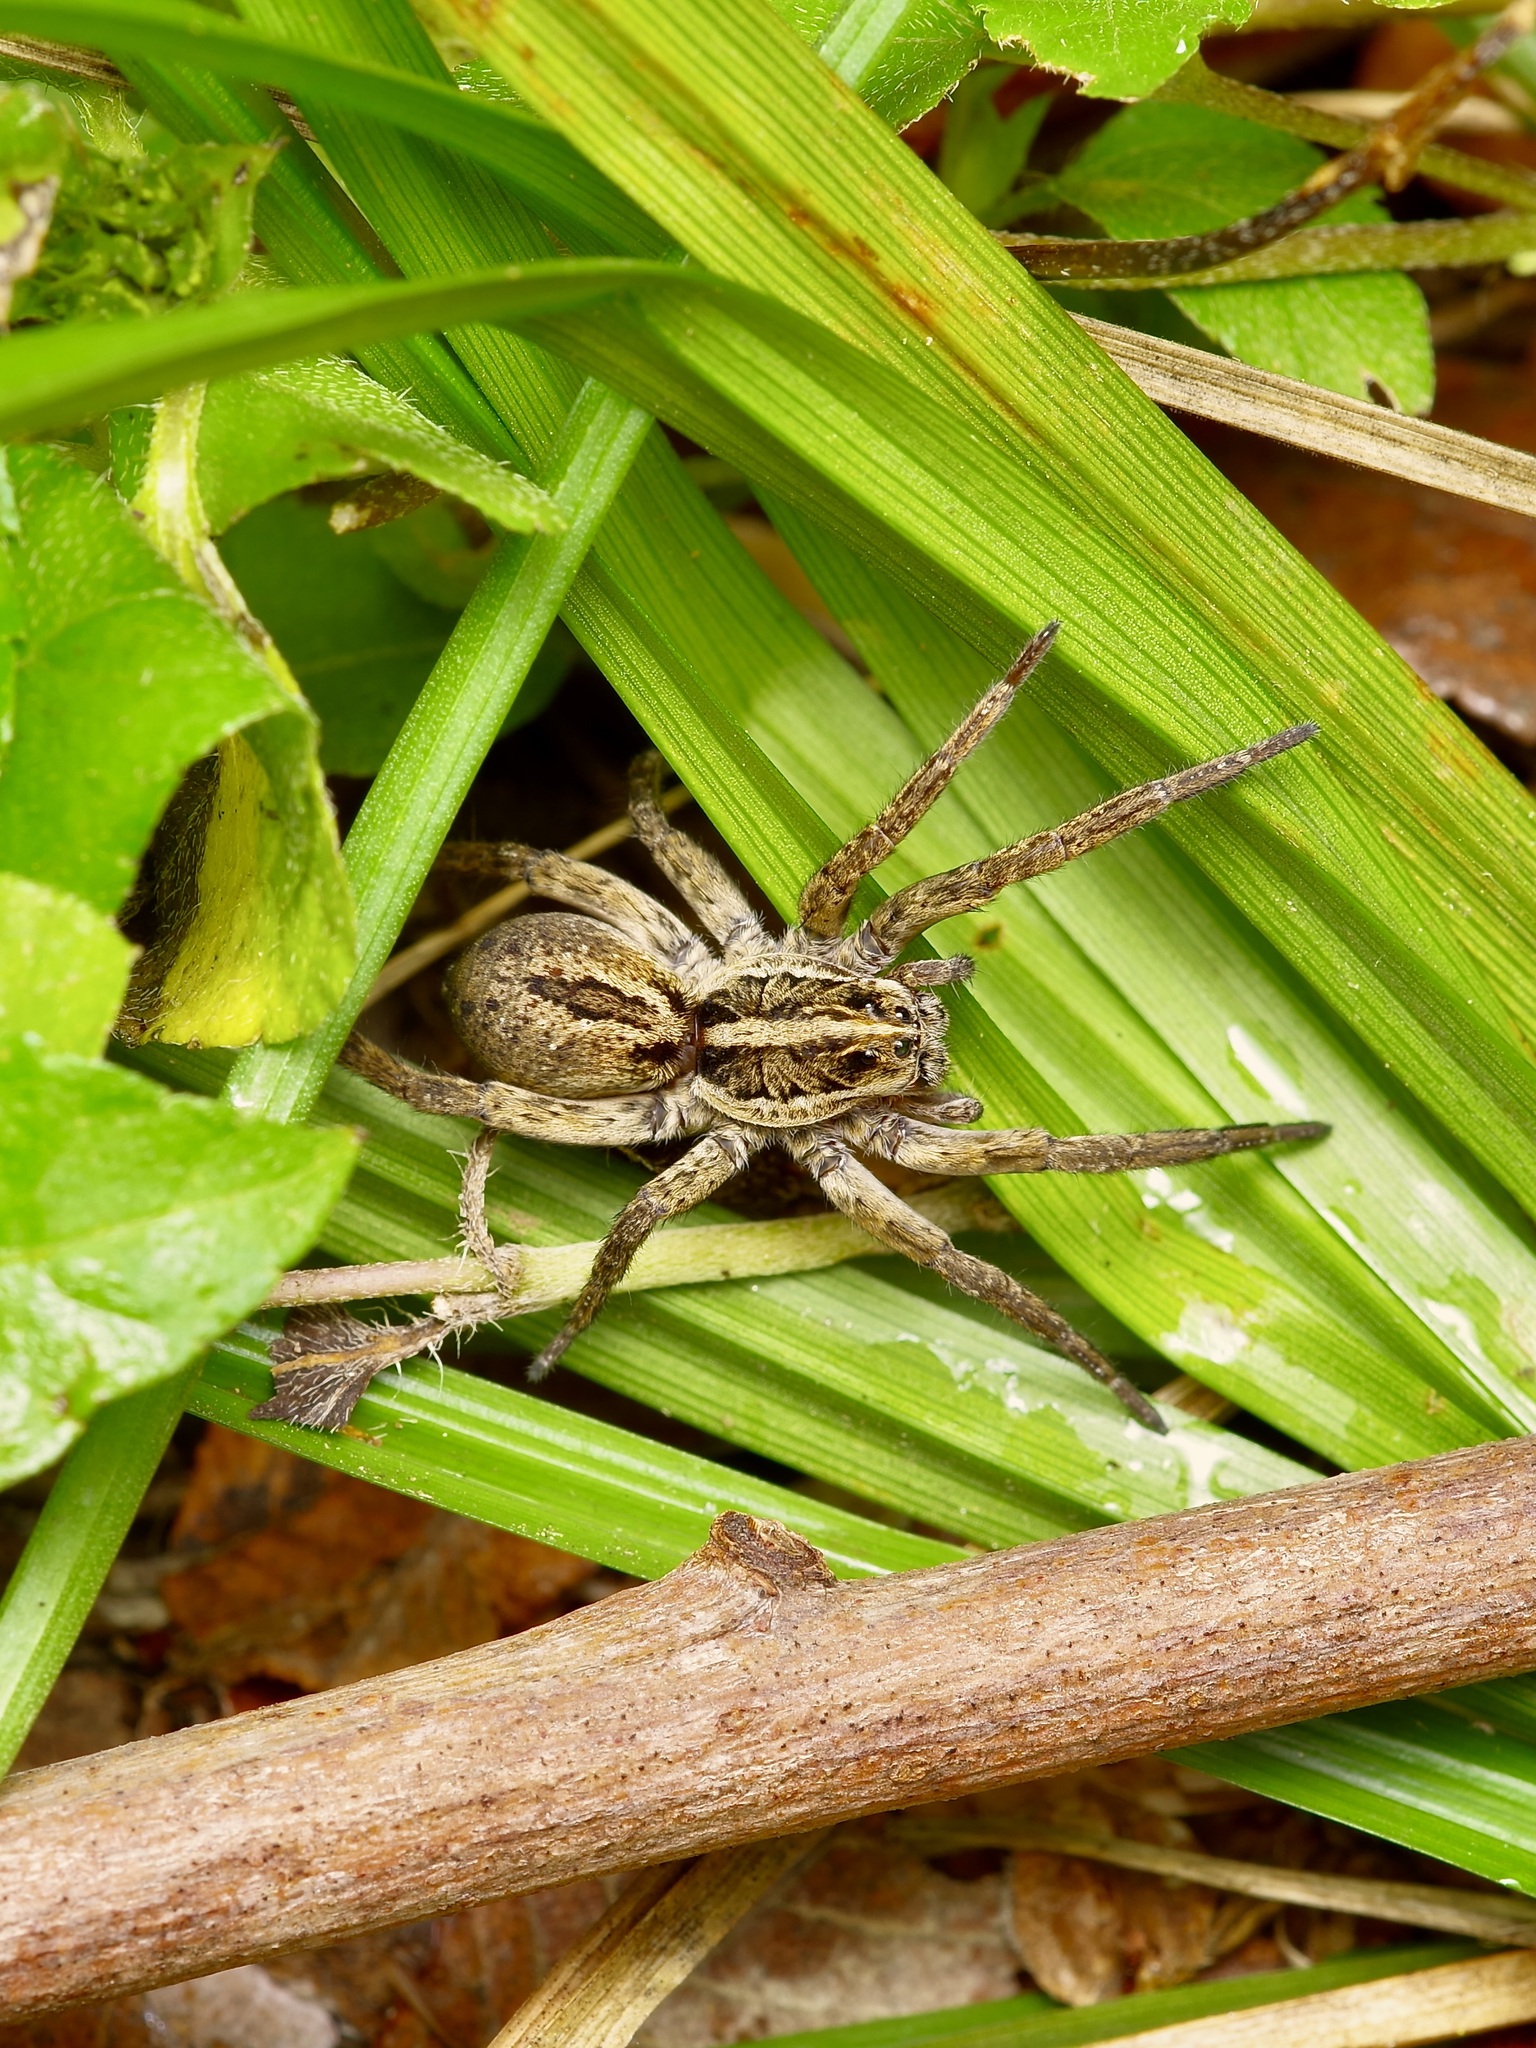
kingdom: Animalia
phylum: Arthropoda
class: Arachnida
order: Araneae
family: Lycosidae
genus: Tigrosa
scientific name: Tigrosa annexa
